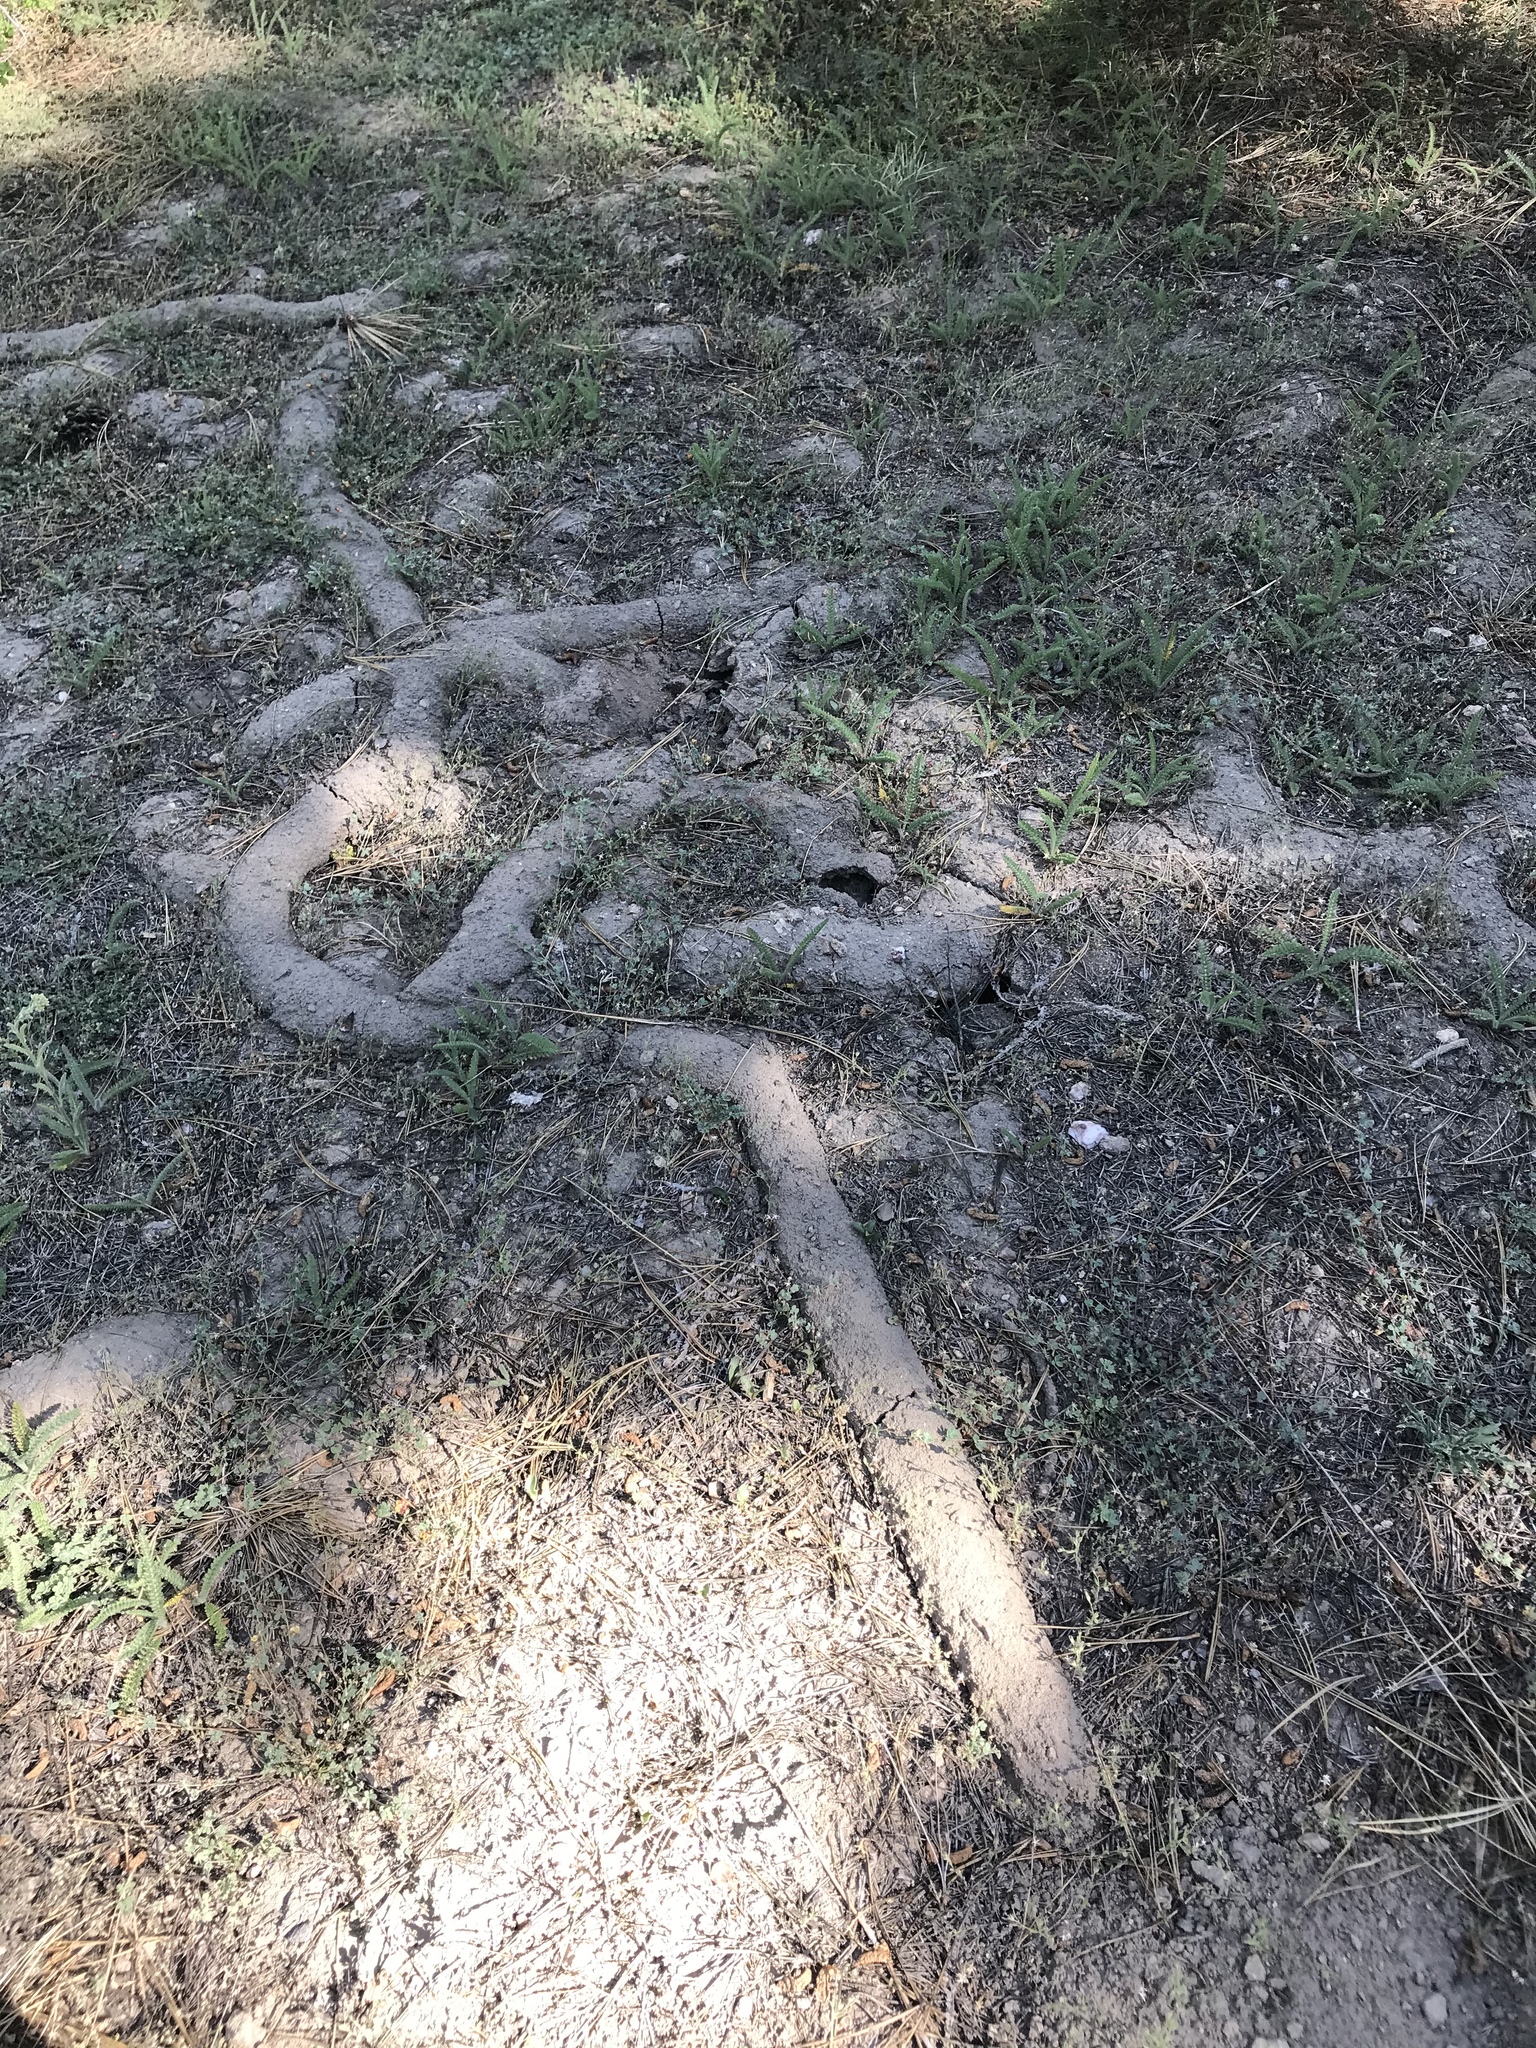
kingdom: Animalia
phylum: Chordata
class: Mammalia
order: Rodentia
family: Geomyidae
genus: Thomomys
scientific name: Thomomys bottae
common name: Botta's pocket gopher
